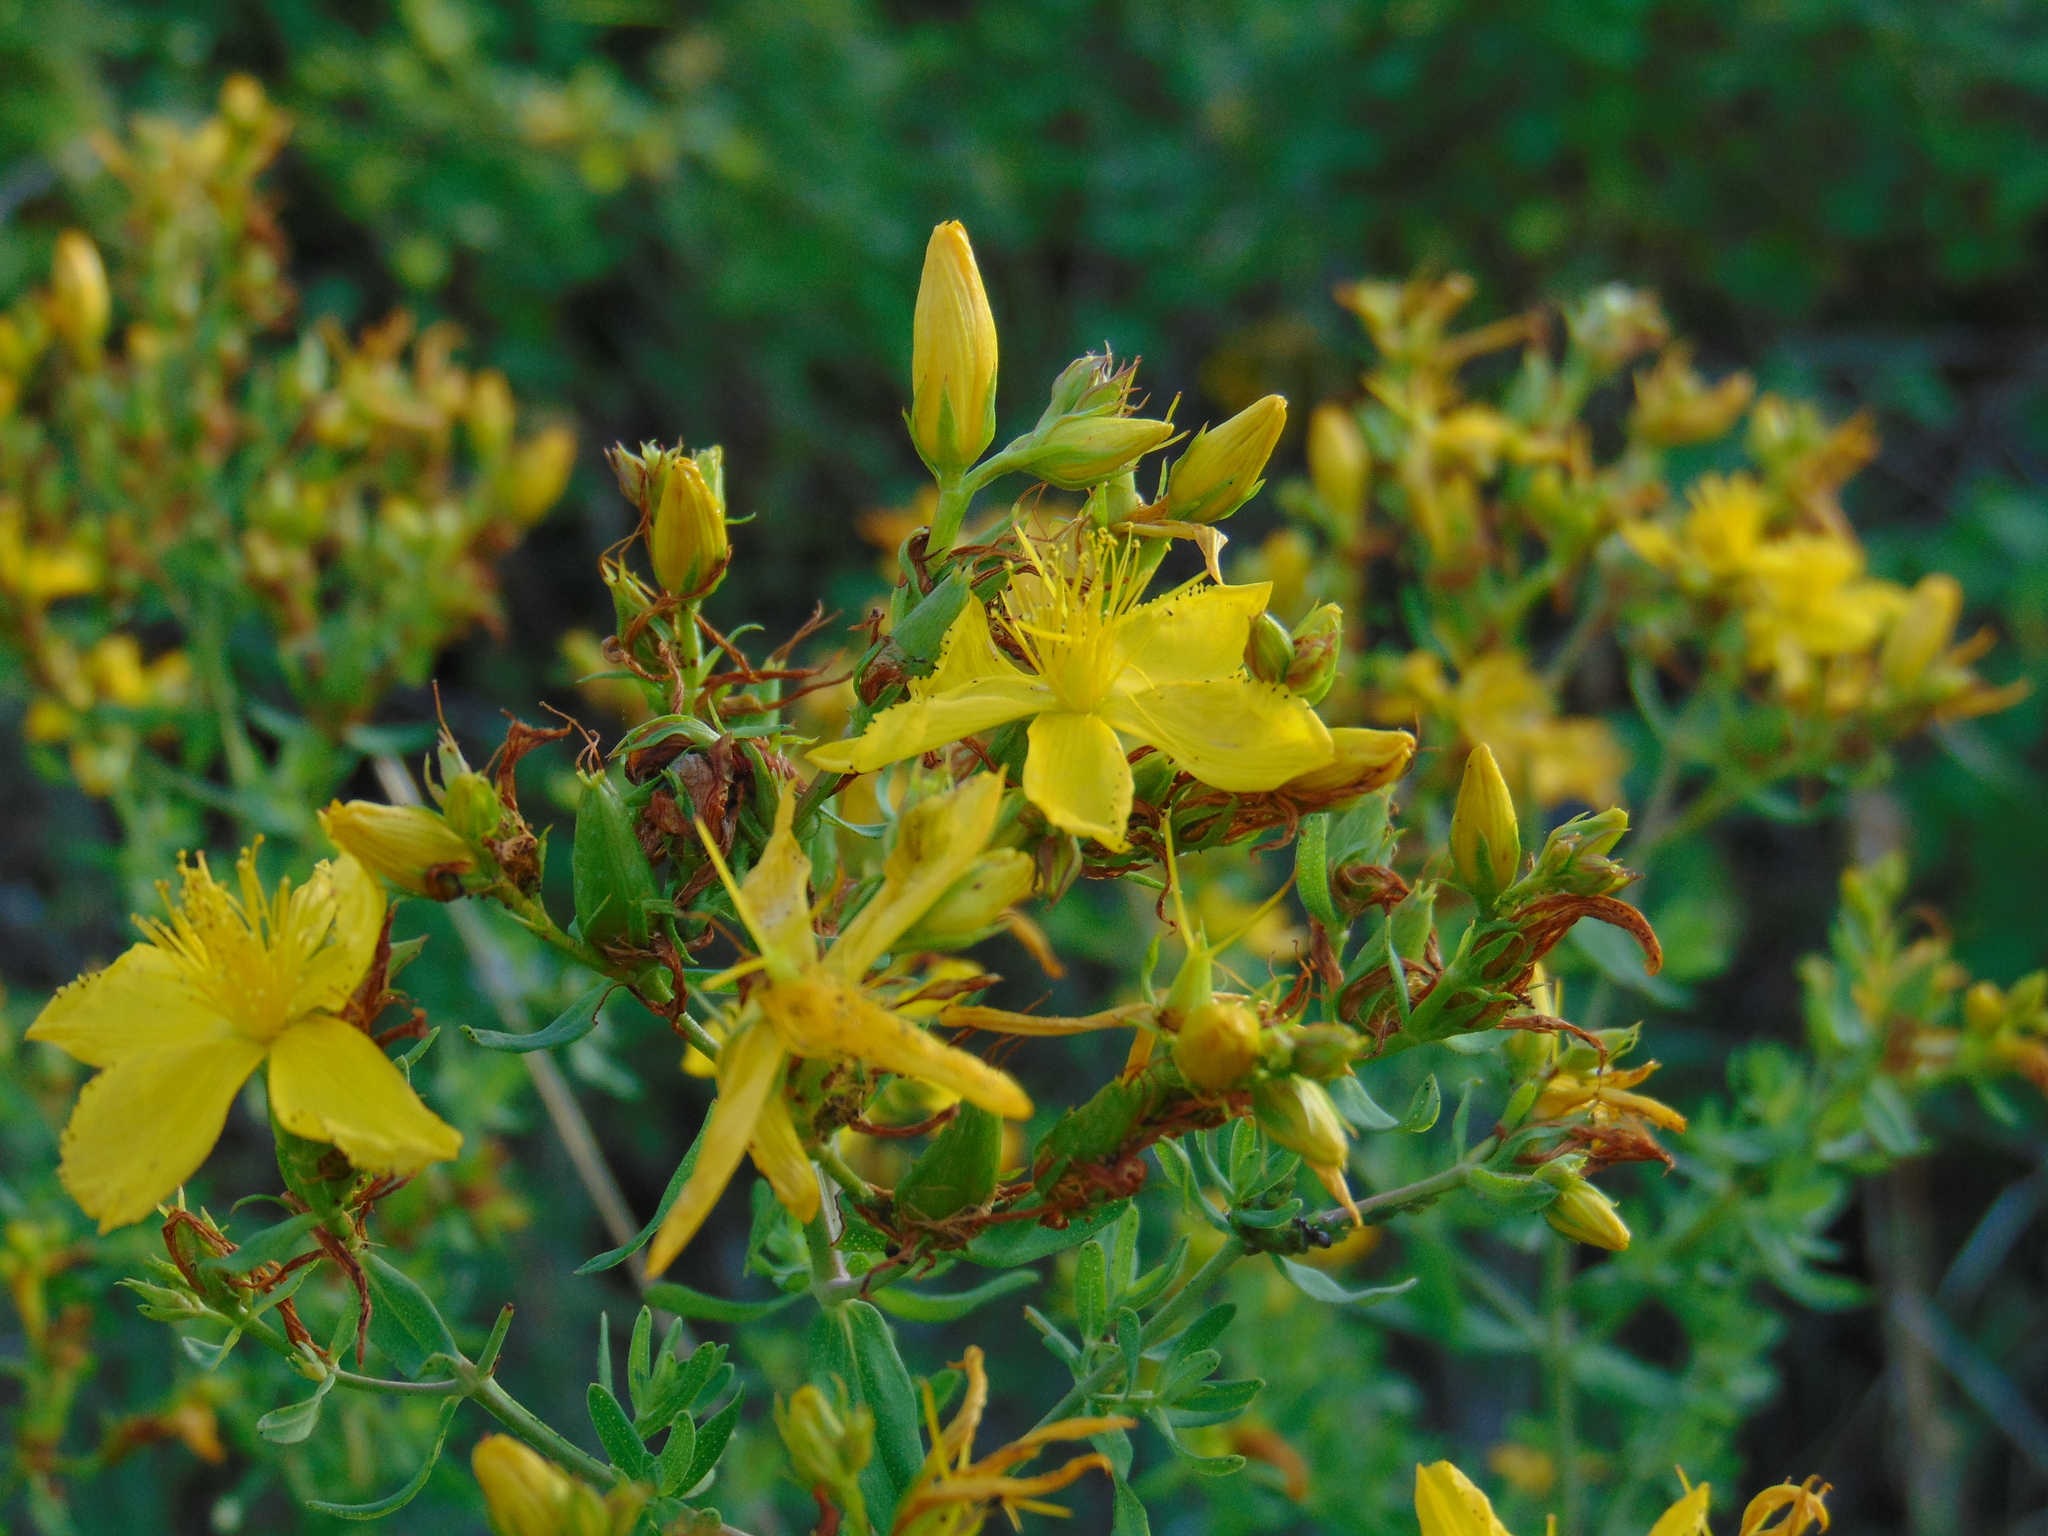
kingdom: Plantae
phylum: Tracheophyta
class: Magnoliopsida
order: Malpighiales
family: Hypericaceae
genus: Hypericum
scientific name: Hypericum perforatum
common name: Common st. johnswort
